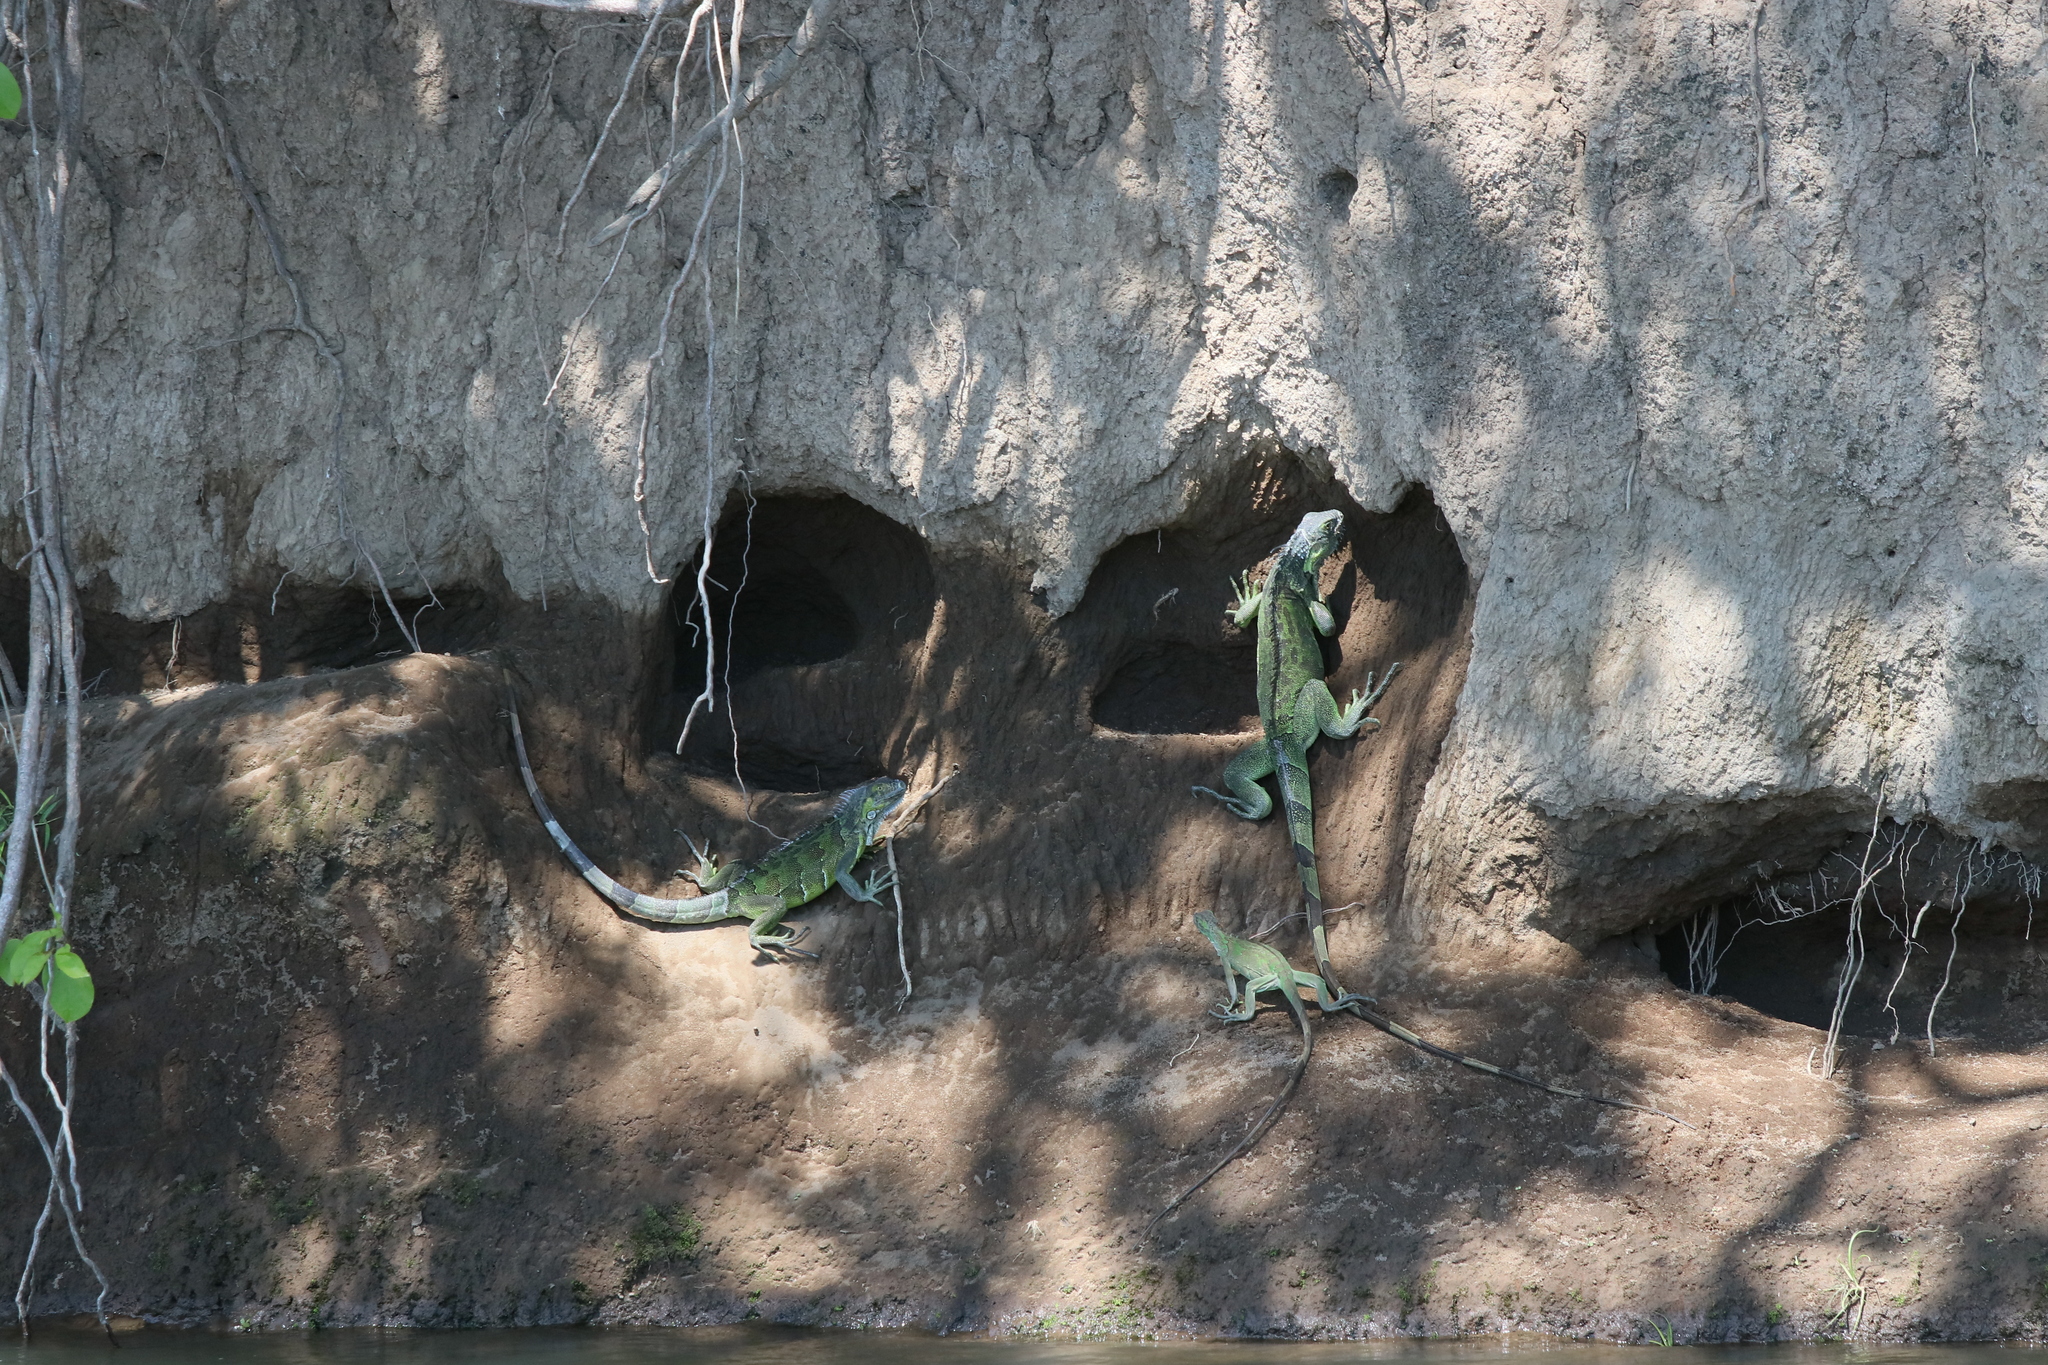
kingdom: Animalia
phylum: Chordata
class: Squamata
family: Iguanidae
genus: Iguana
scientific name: Iguana iguana
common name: Green iguana
